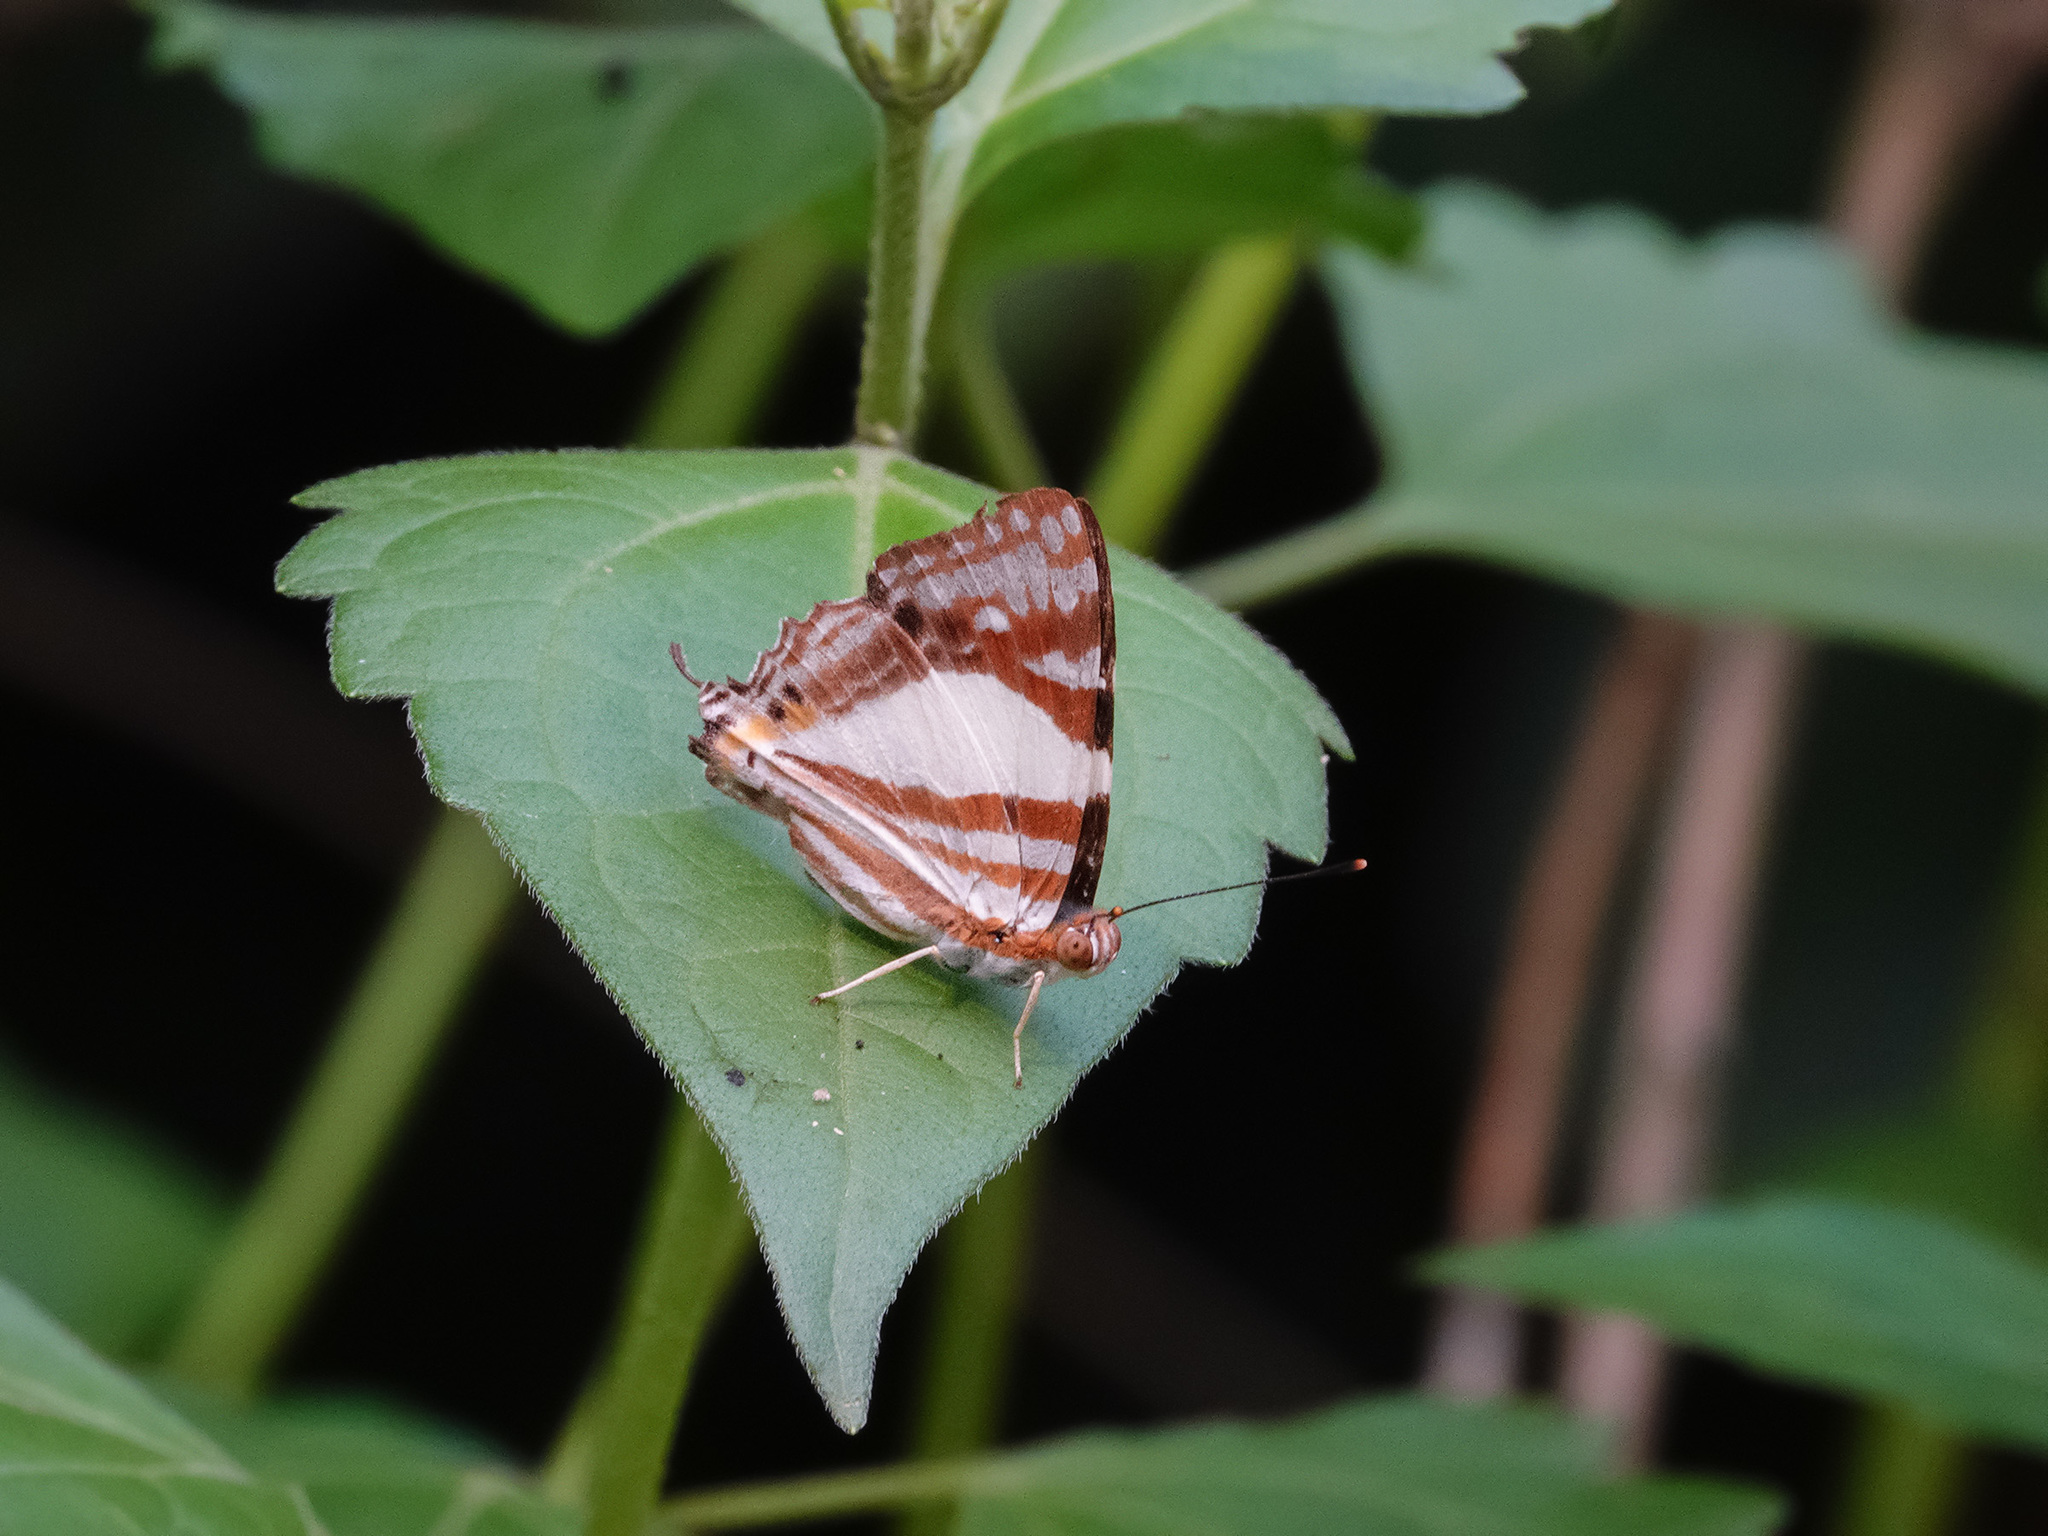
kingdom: Animalia
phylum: Arthropoda
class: Insecta
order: Lepidoptera
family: Lycaenidae
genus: Dodona
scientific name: Dodona deodata
